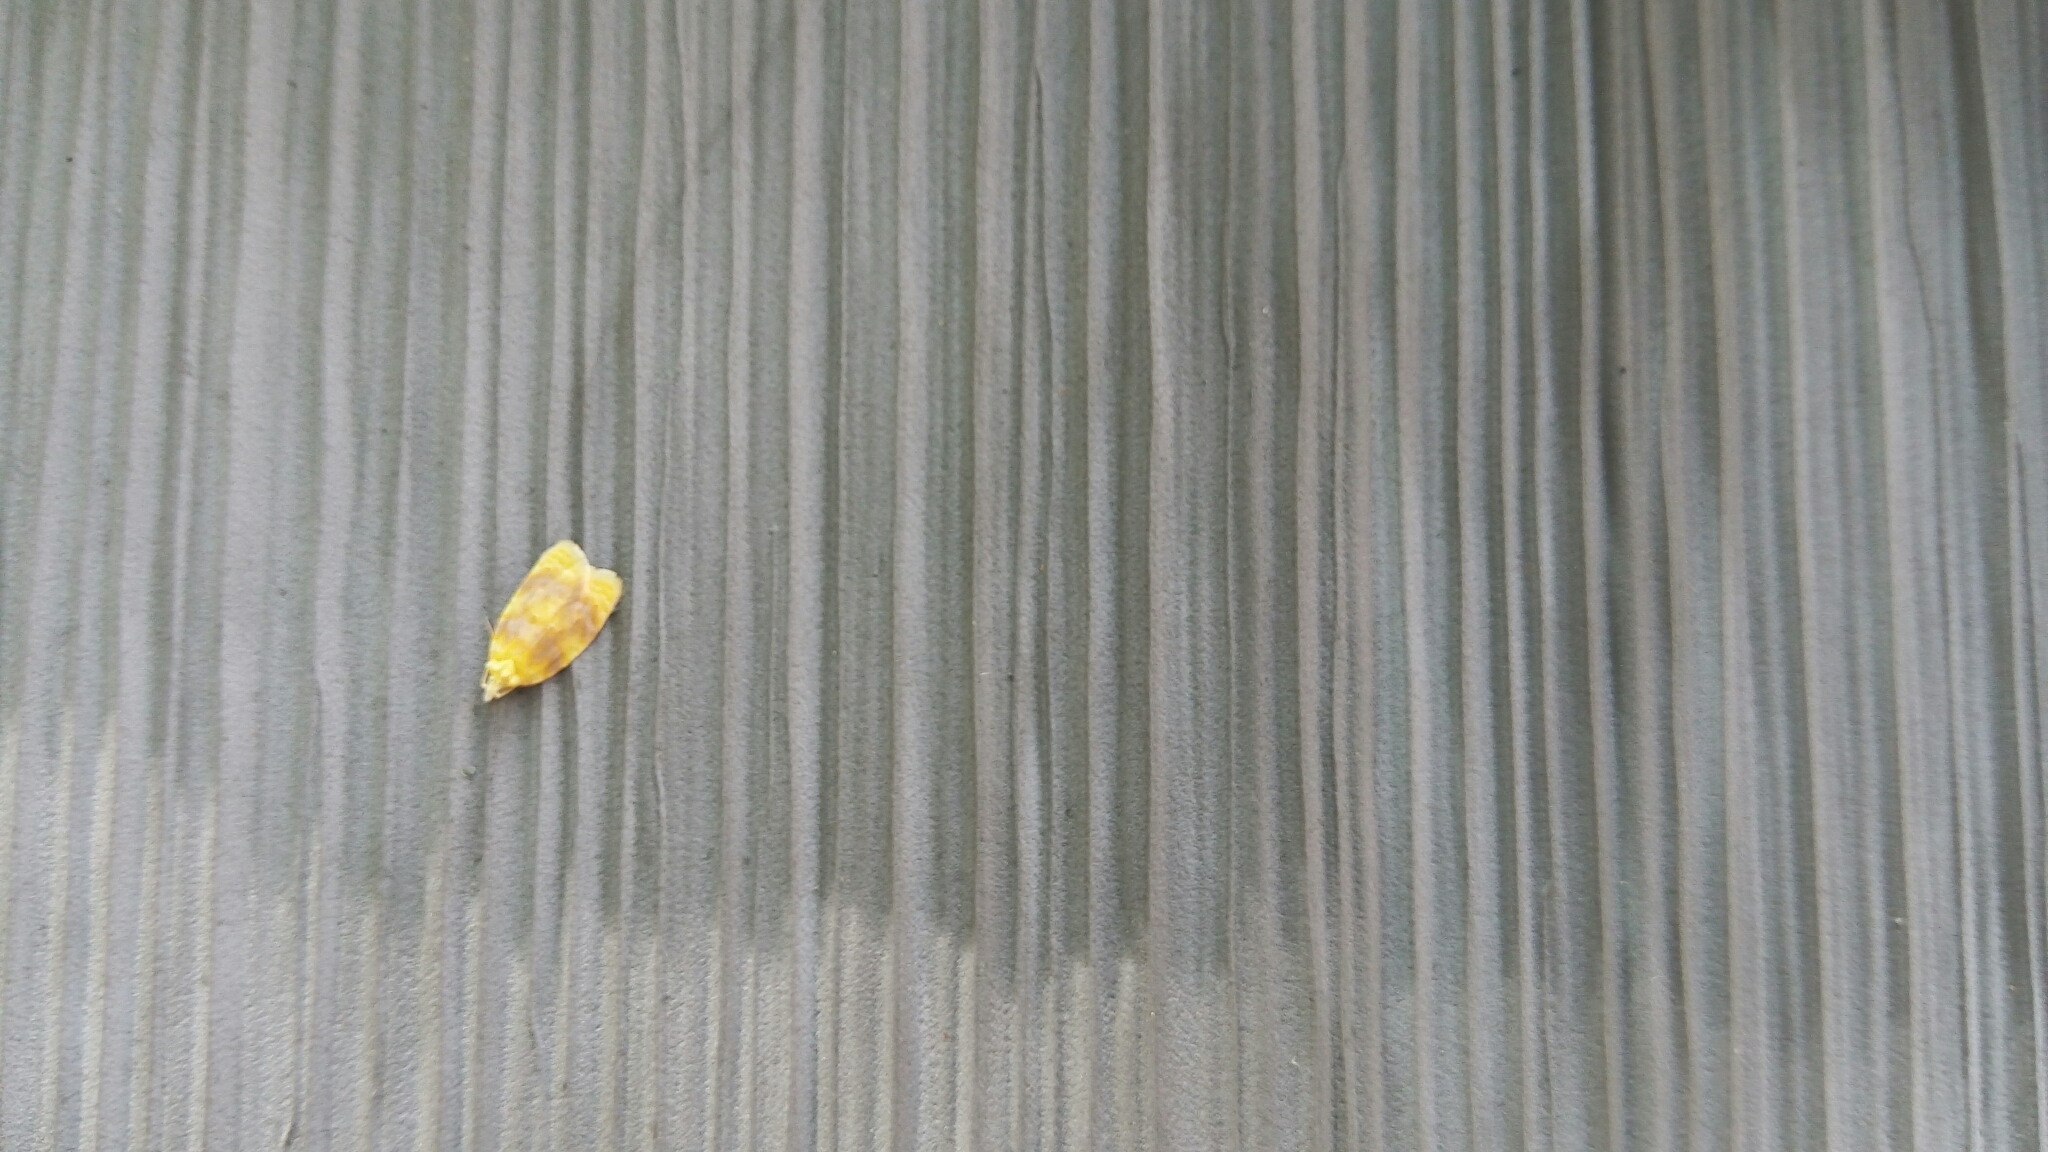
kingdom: Animalia
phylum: Arthropoda
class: Insecta
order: Lepidoptera
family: Tortricidae
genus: Acleris
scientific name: Acleris semipurpurana
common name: Oak leaftier moth
